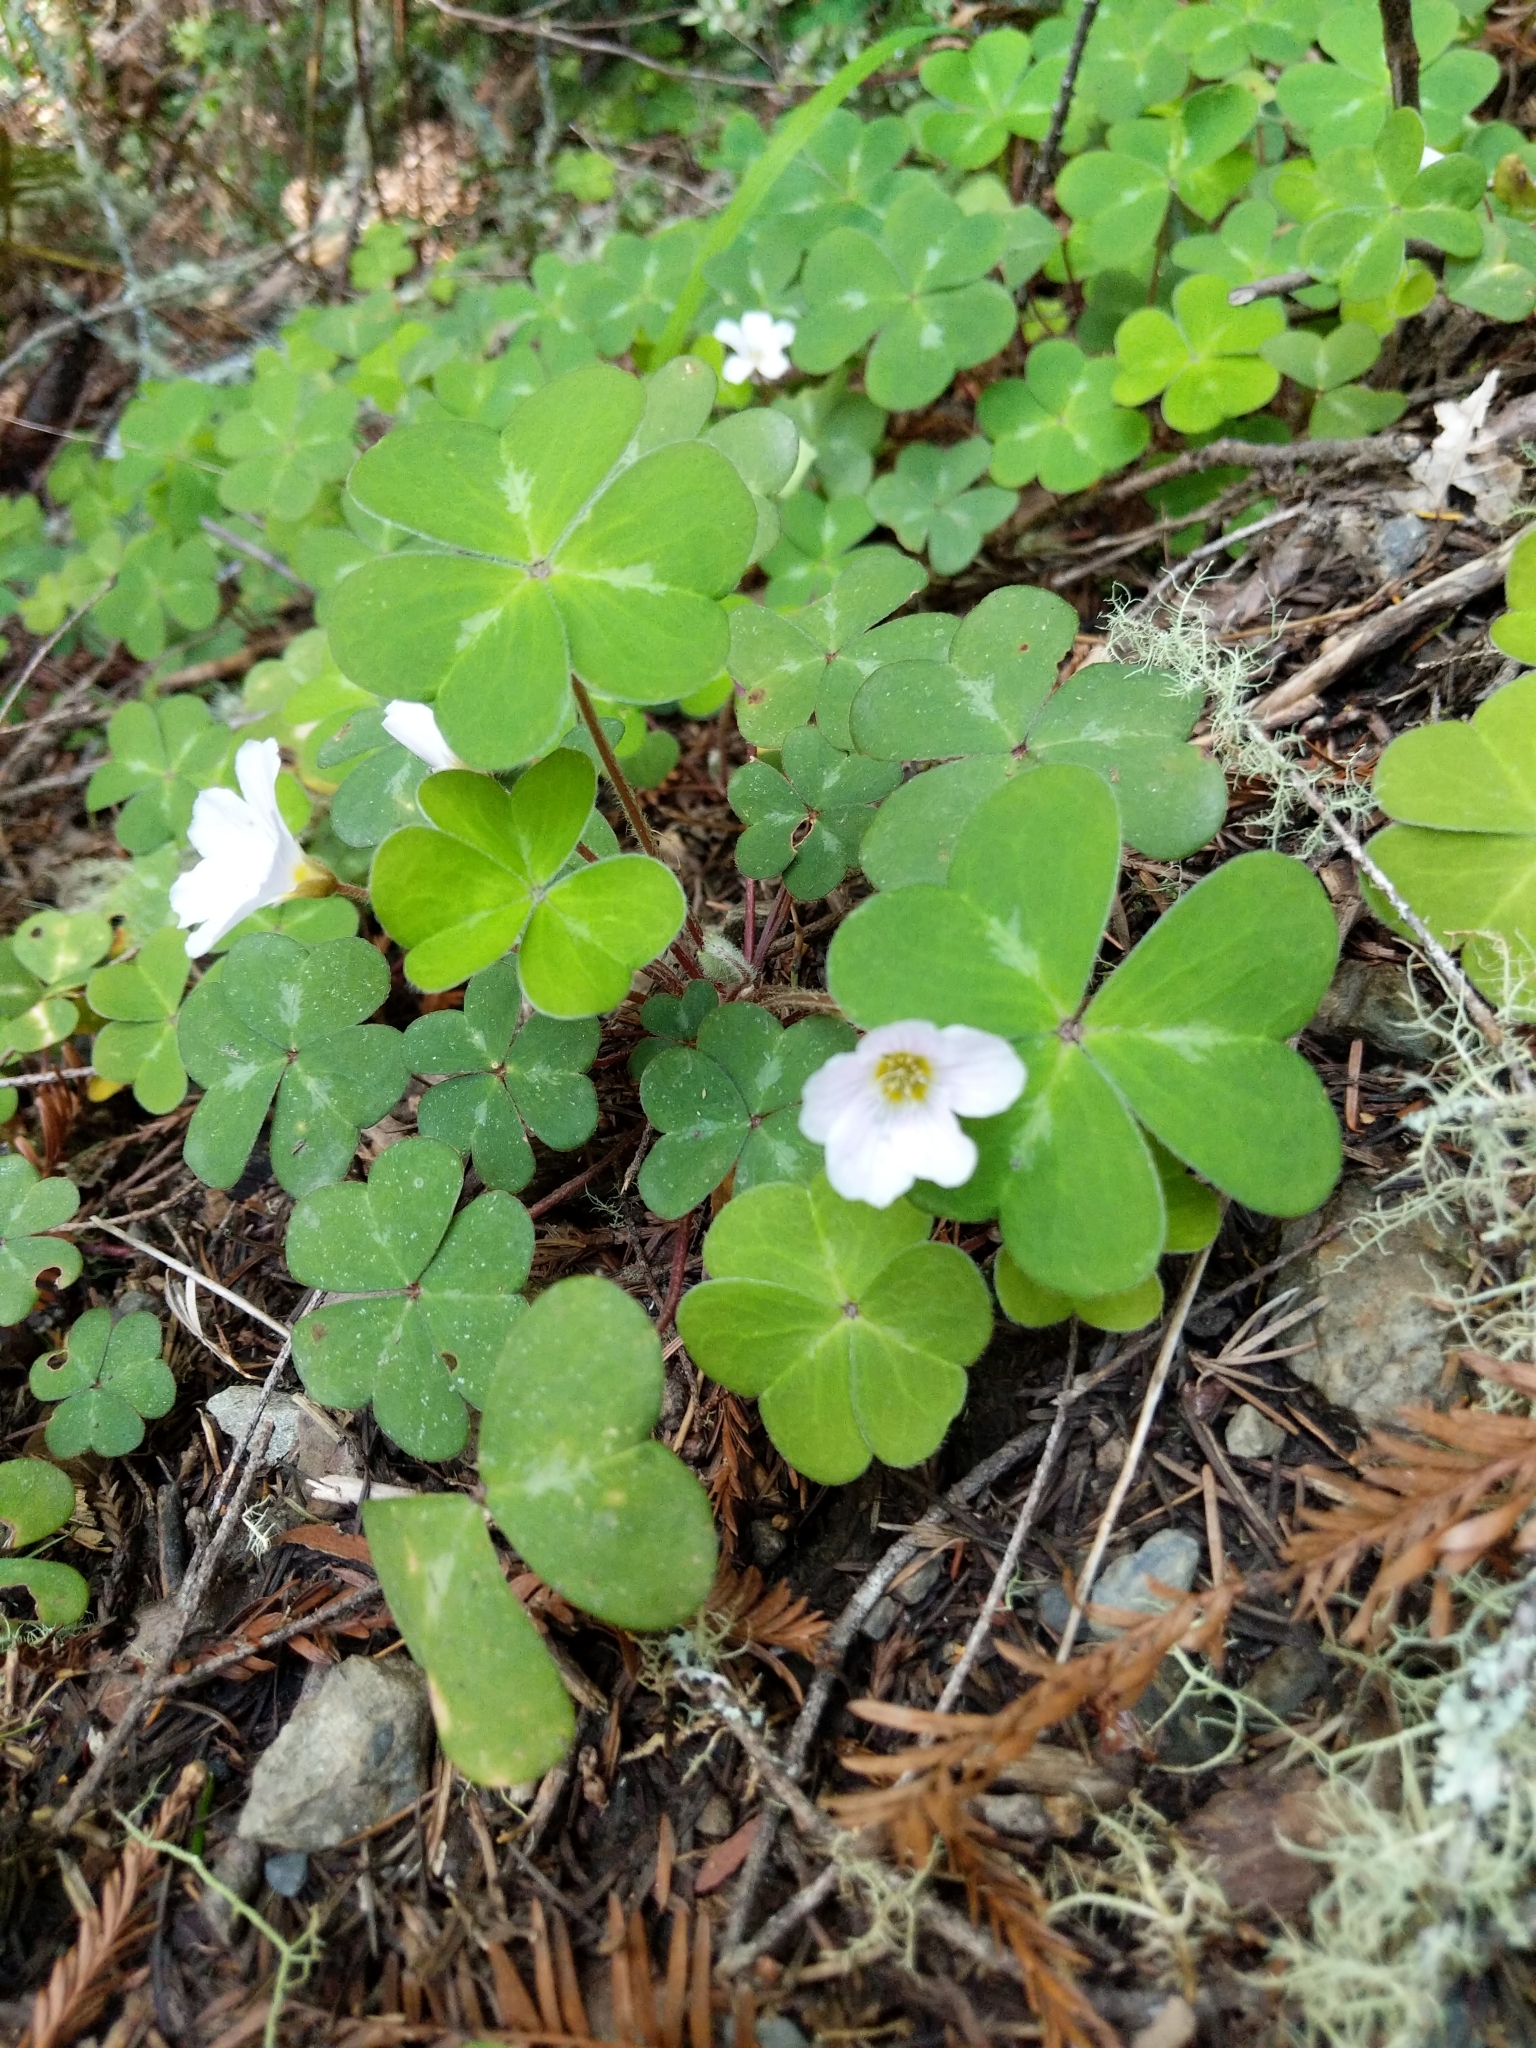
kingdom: Plantae
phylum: Tracheophyta
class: Magnoliopsida
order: Oxalidales
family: Oxalidaceae
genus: Oxalis
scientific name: Oxalis oregana
